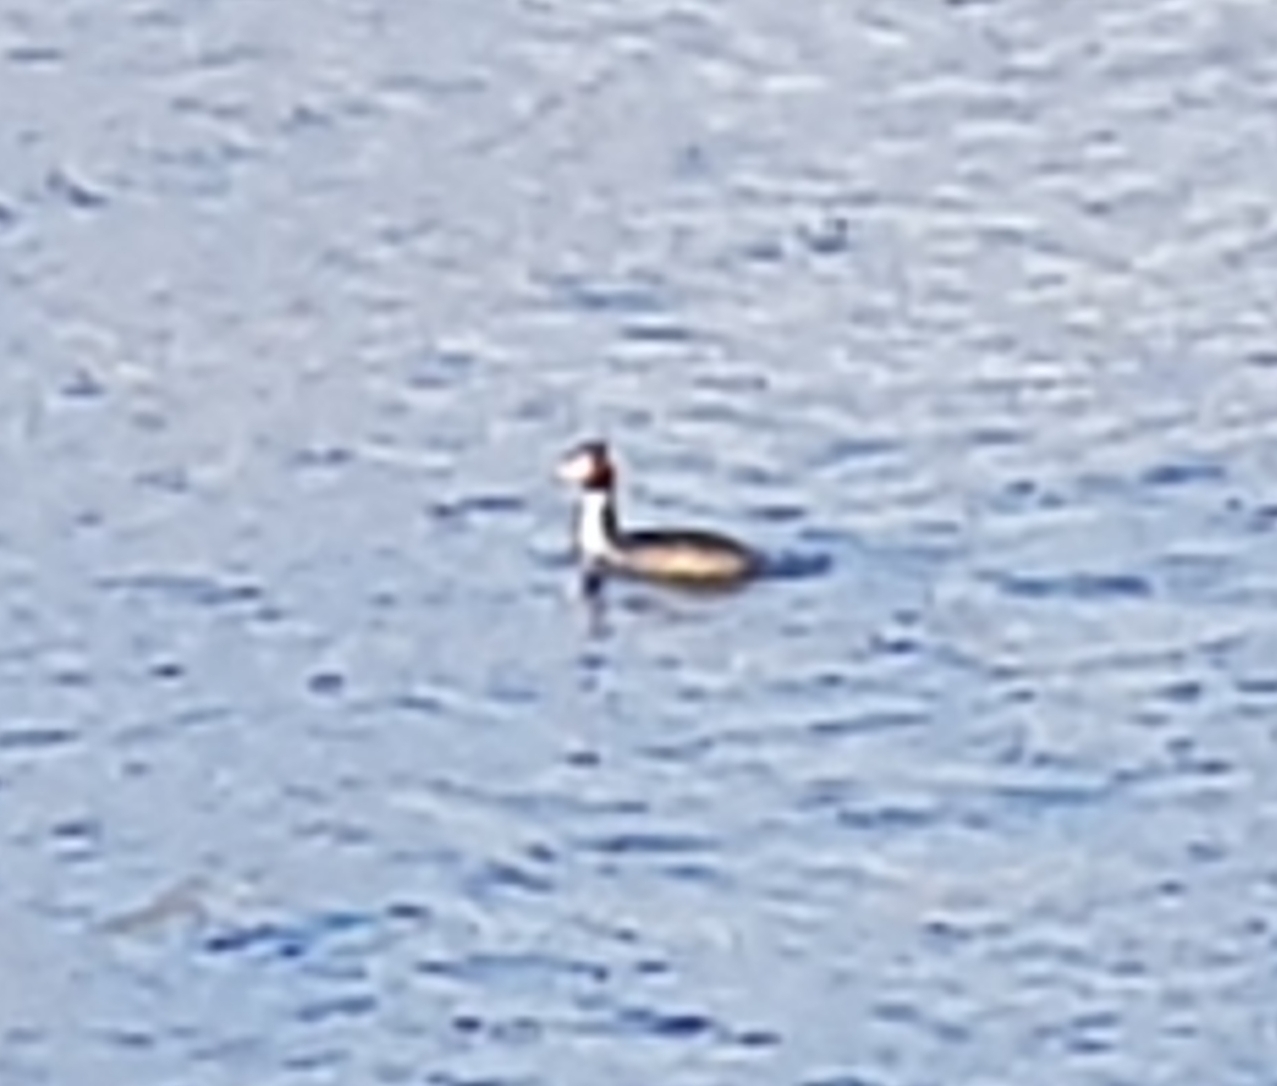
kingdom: Animalia
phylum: Chordata
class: Aves
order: Podicipediformes
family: Podicipedidae
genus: Podiceps
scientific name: Podiceps cristatus
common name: Great crested grebe
